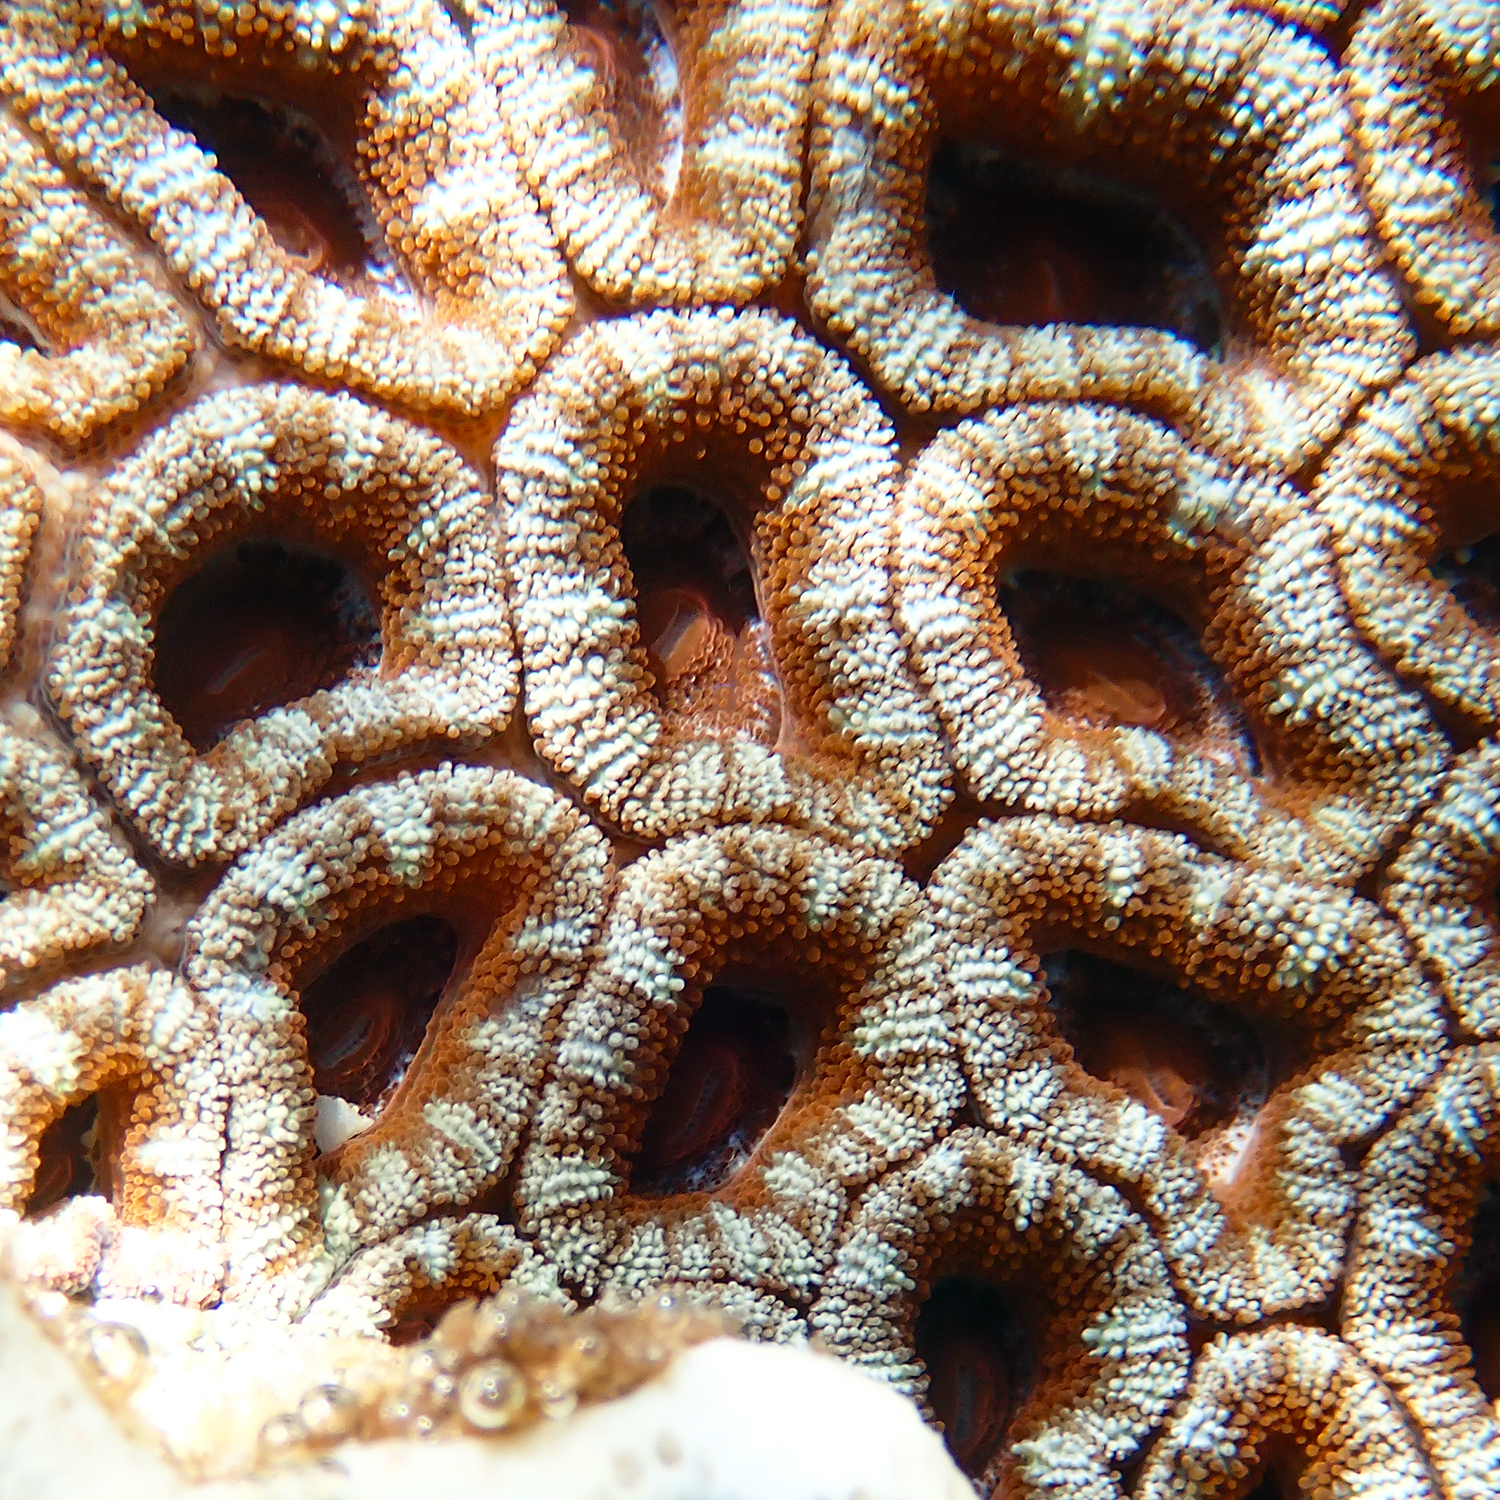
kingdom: Animalia
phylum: Cnidaria
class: Anthozoa
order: Scleractinia
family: Lobophylliidae
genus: Micromussa
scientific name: Micromussa lordhowensis
